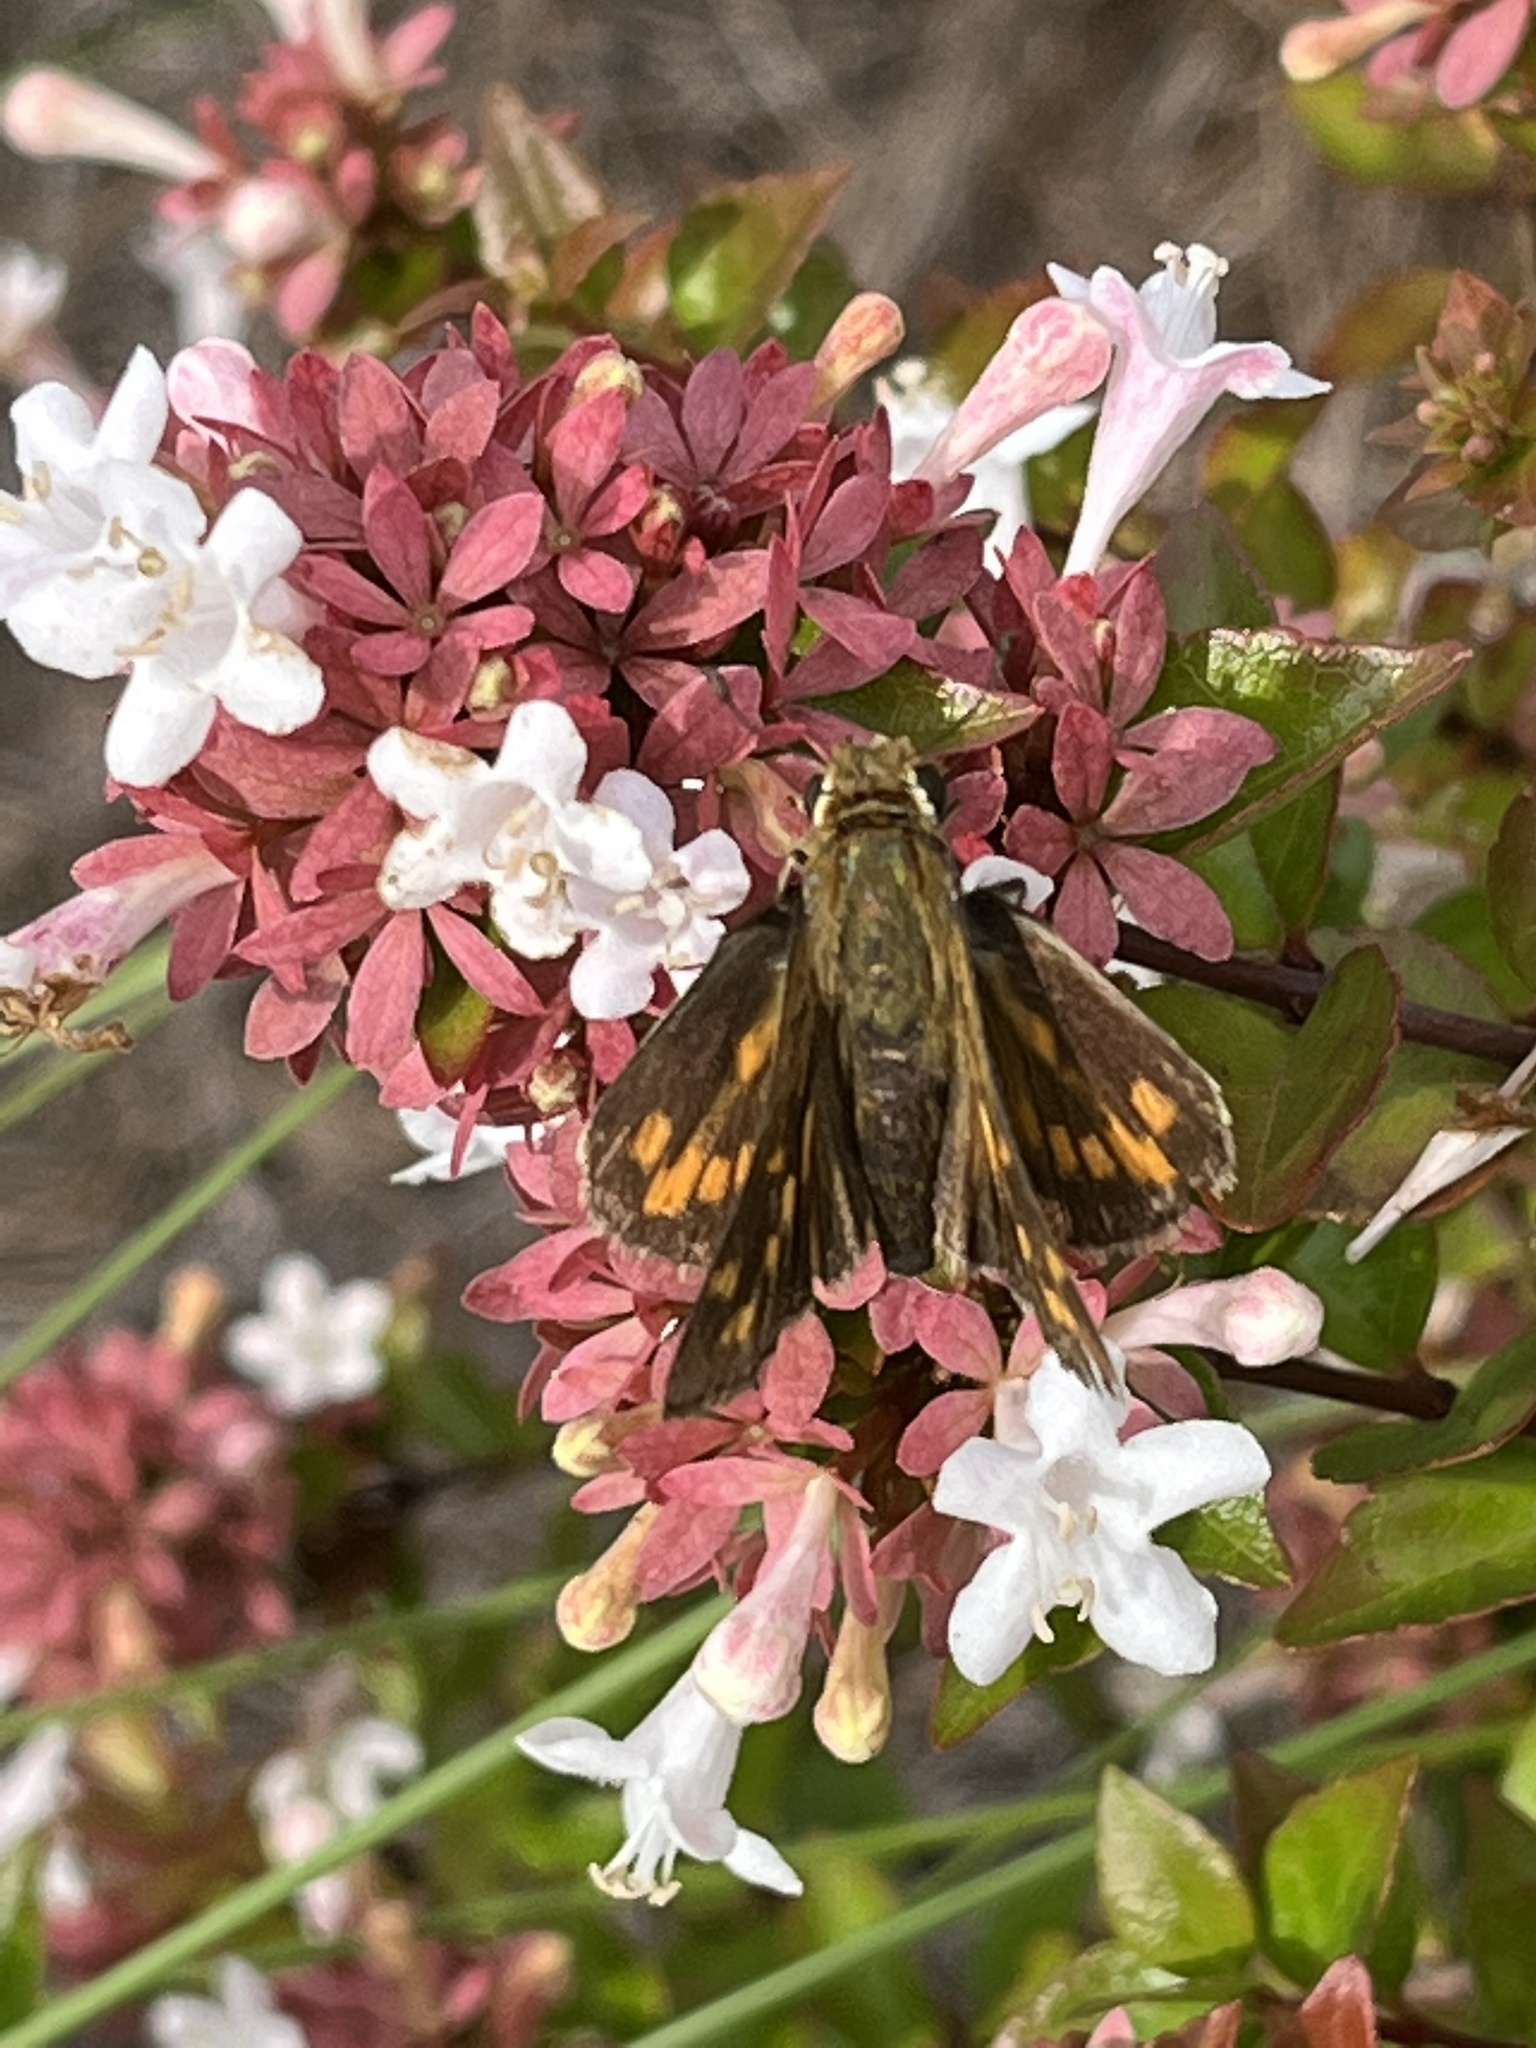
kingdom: Animalia
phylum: Arthropoda
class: Insecta
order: Lepidoptera
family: Hesperiidae
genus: Hylephila
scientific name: Hylephila phyleus
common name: Fiery skipper
